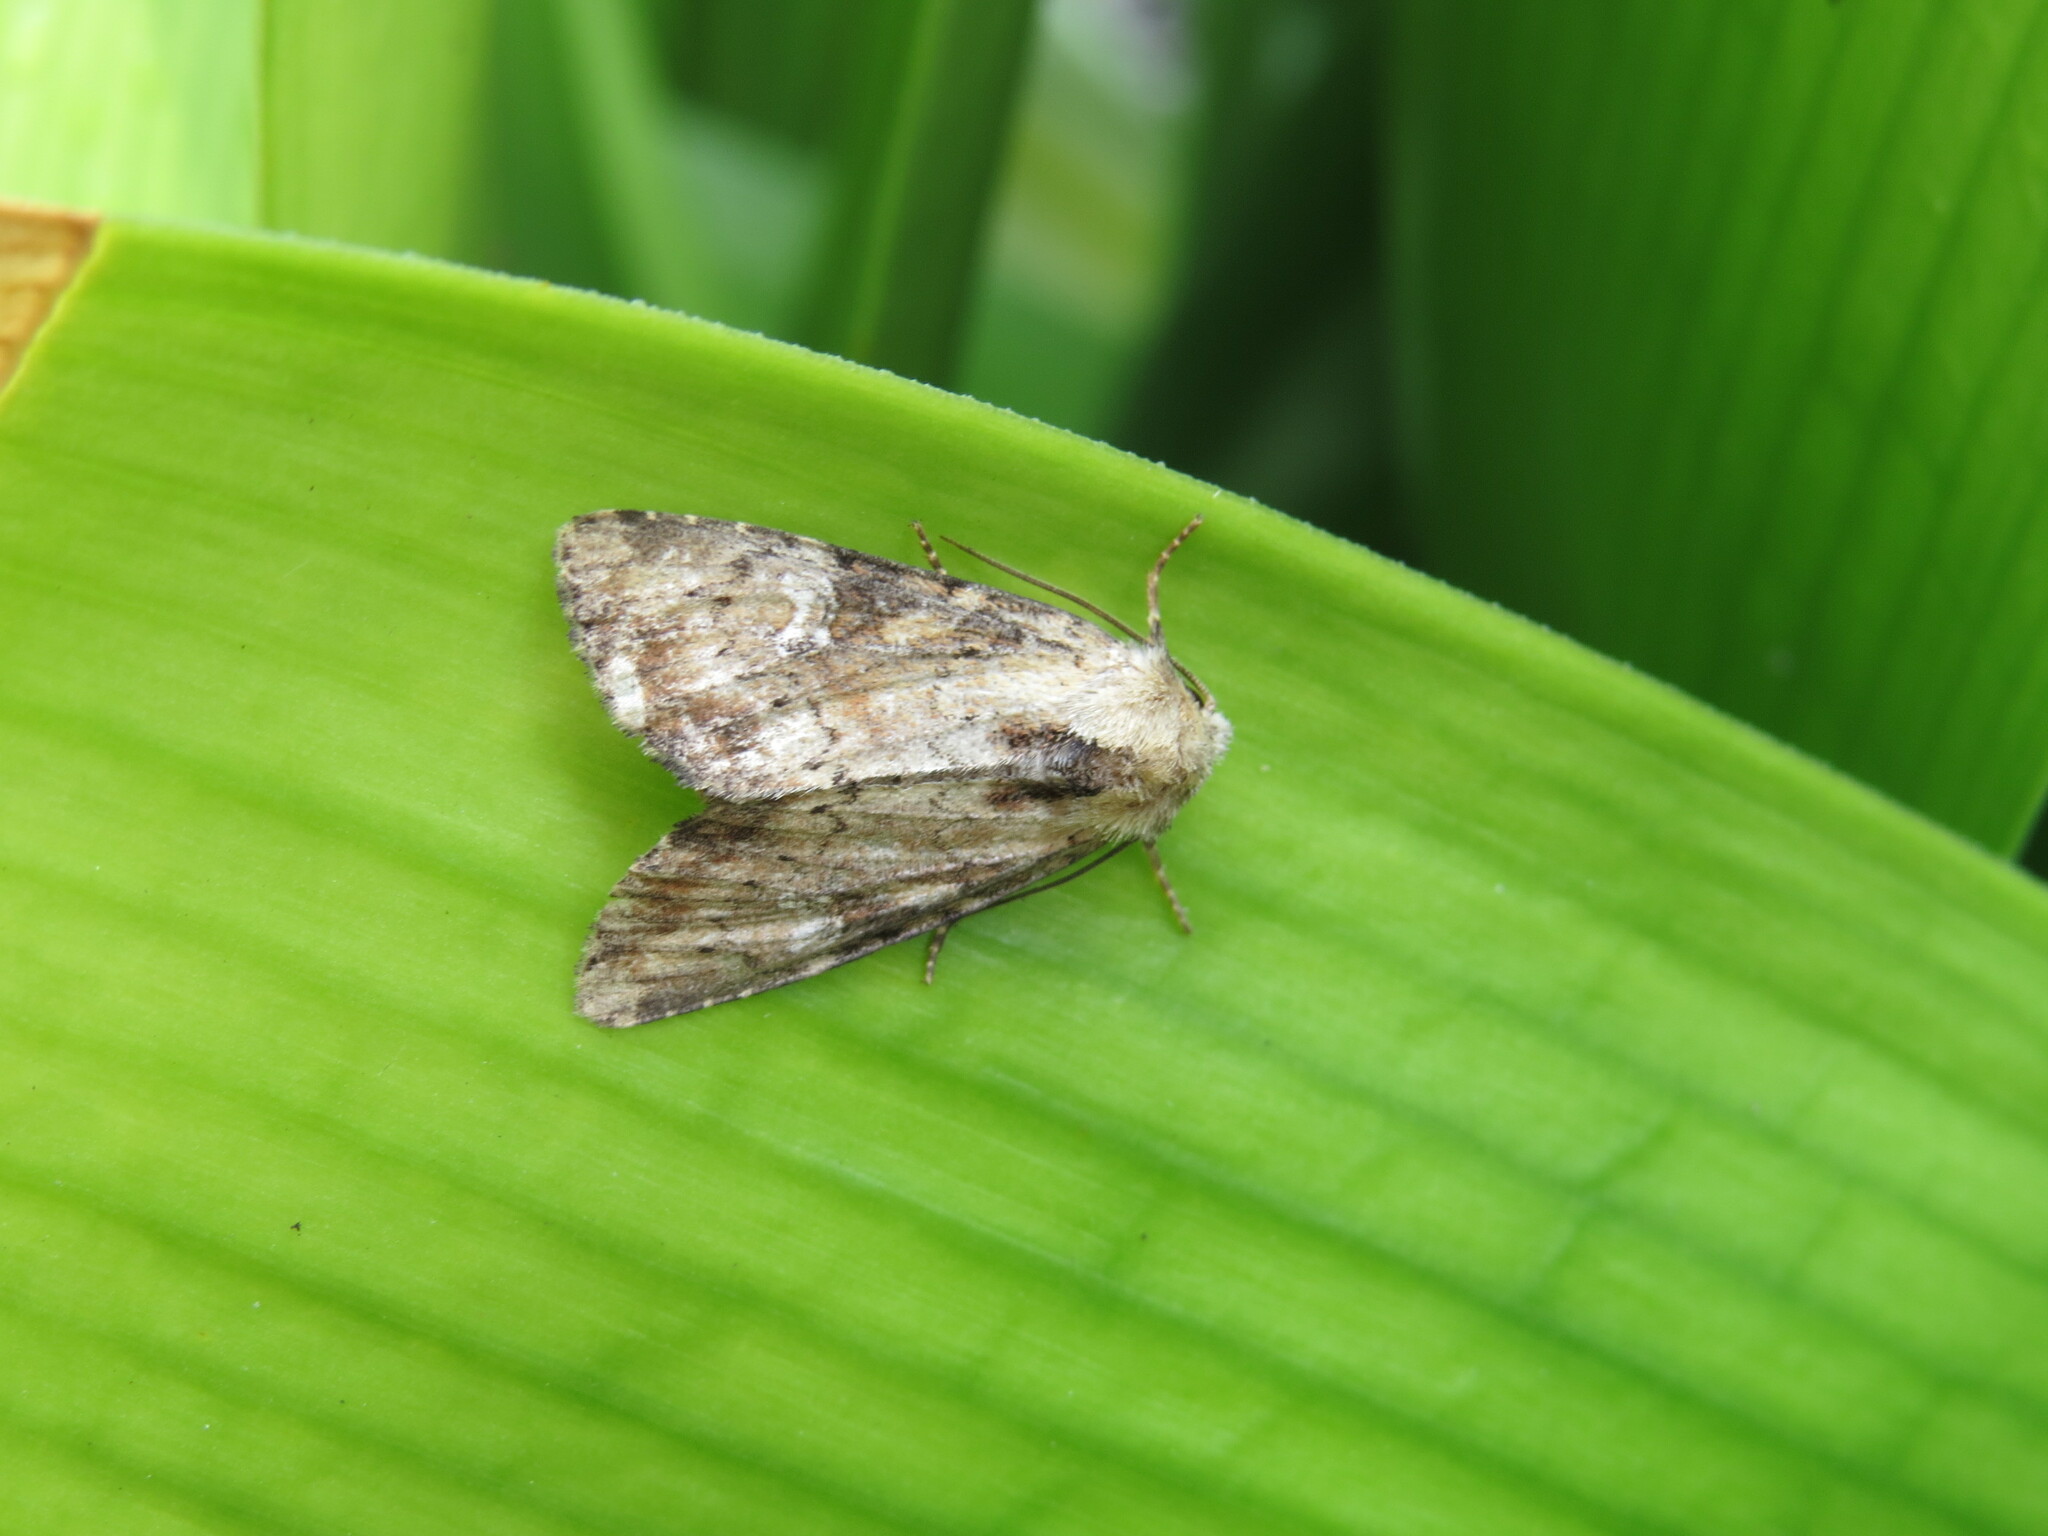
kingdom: Animalia
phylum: Arthropoda
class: Insecta
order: Lepidoptera
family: Noctuidae
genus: Loscopia
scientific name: Loscopia scolopacina
